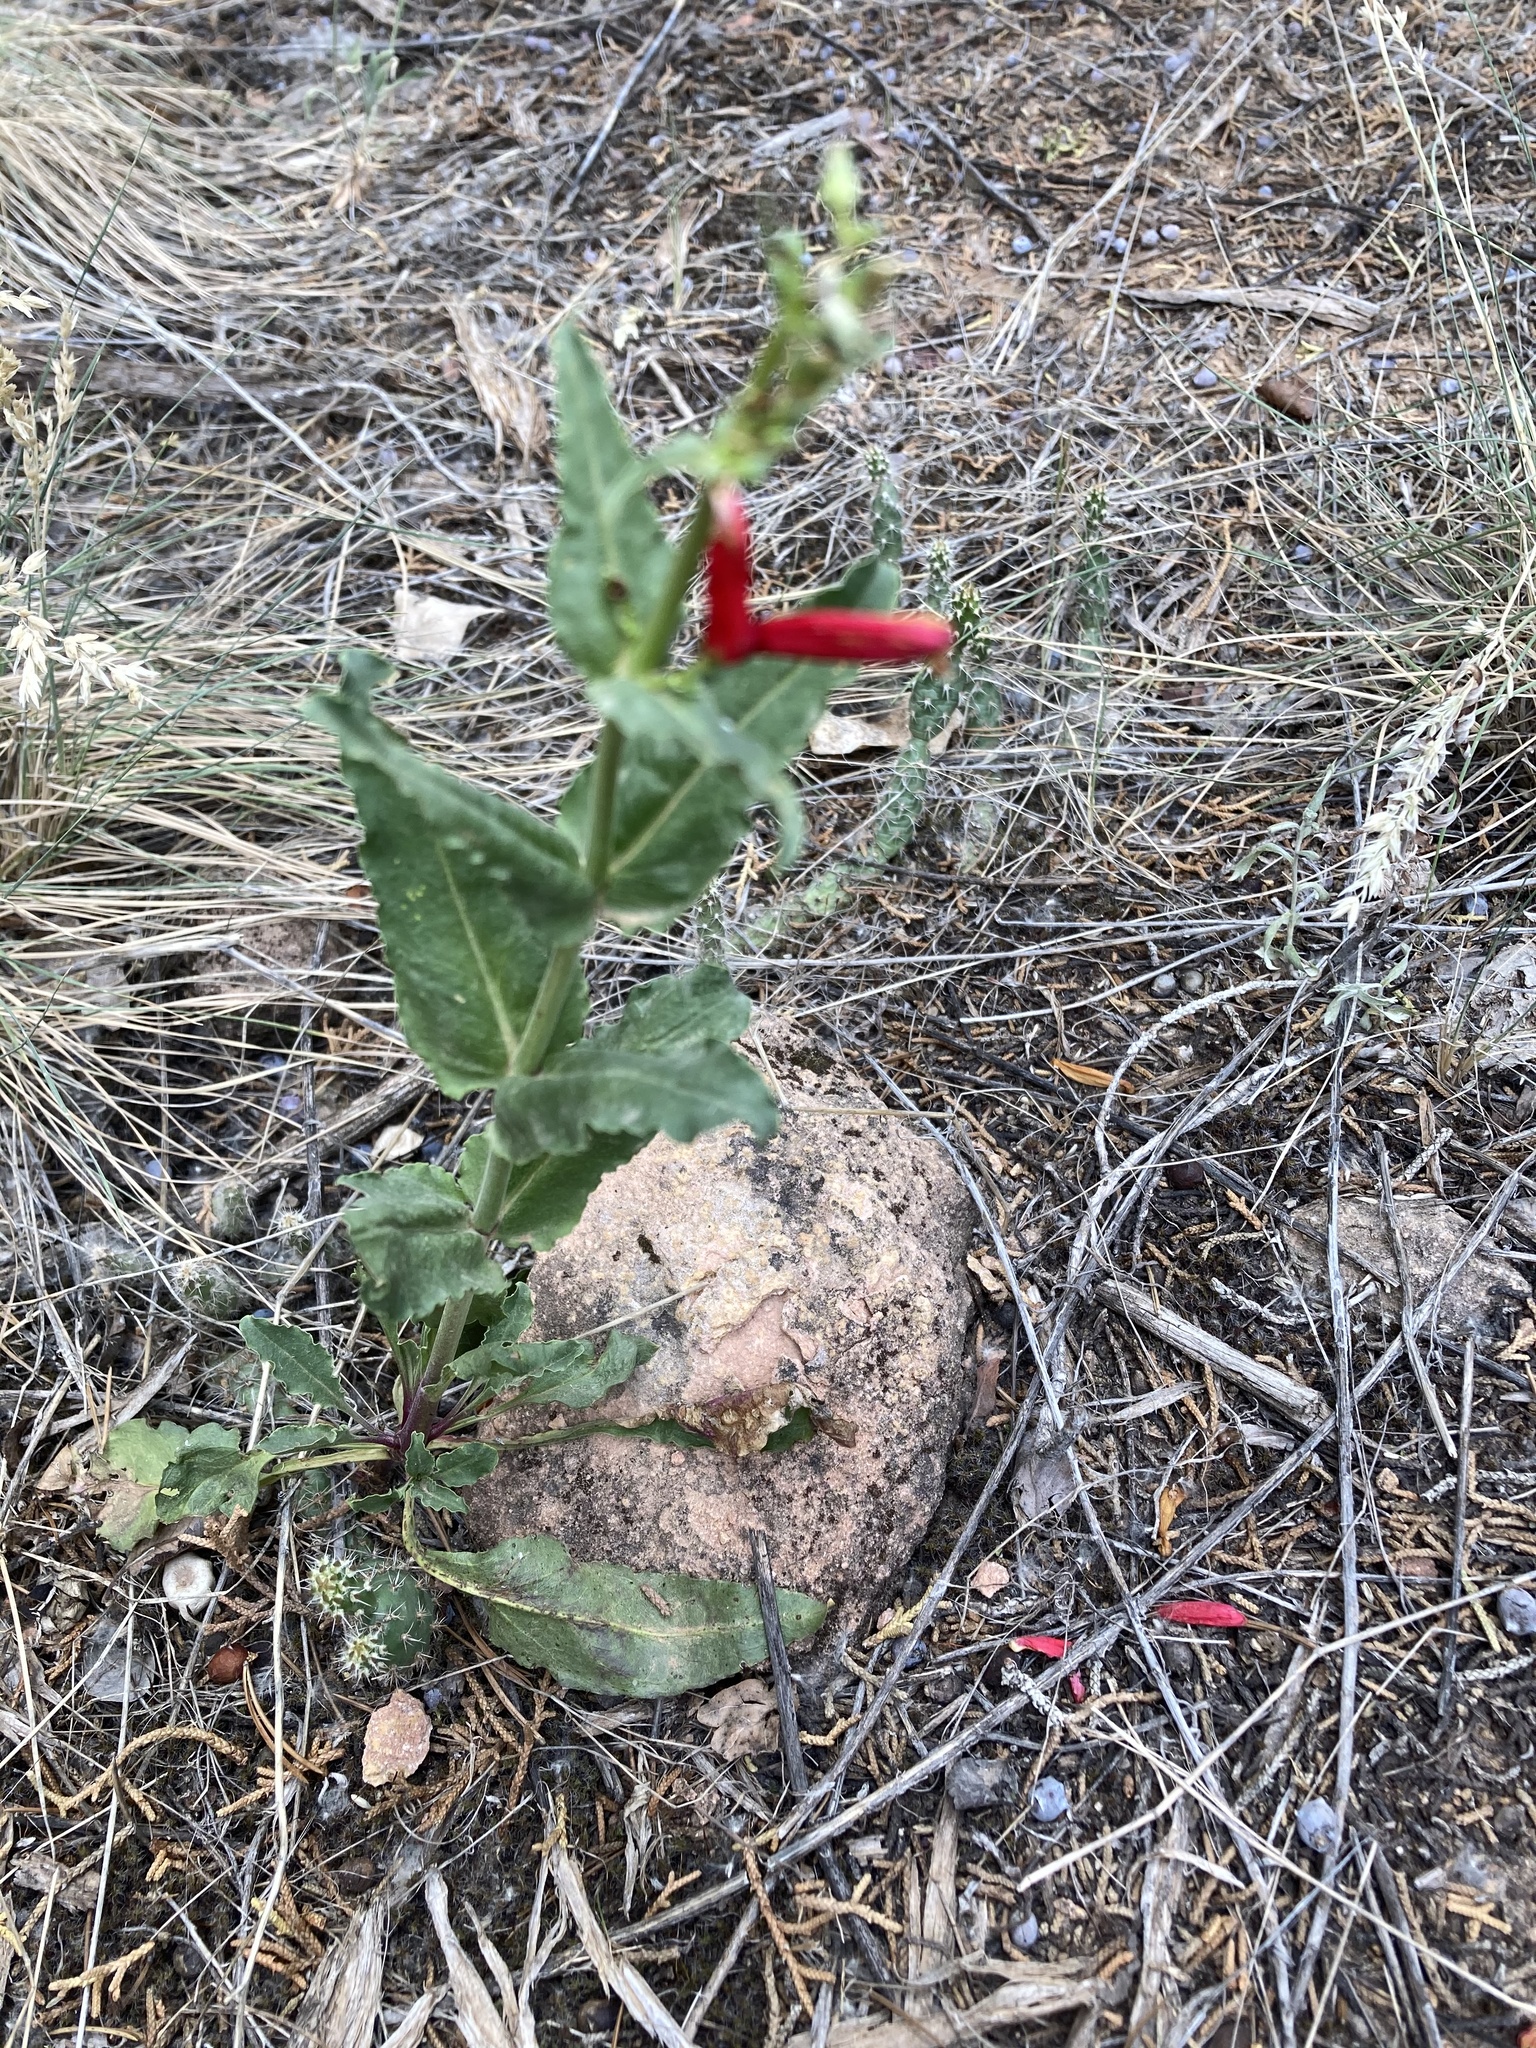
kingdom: Plantae
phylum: Tracheophyta
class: Magnoliopsida
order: Lamiales
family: Plantaginaceae
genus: Penstemon
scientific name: Penstemon eatonii
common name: Eaton's penstemon
